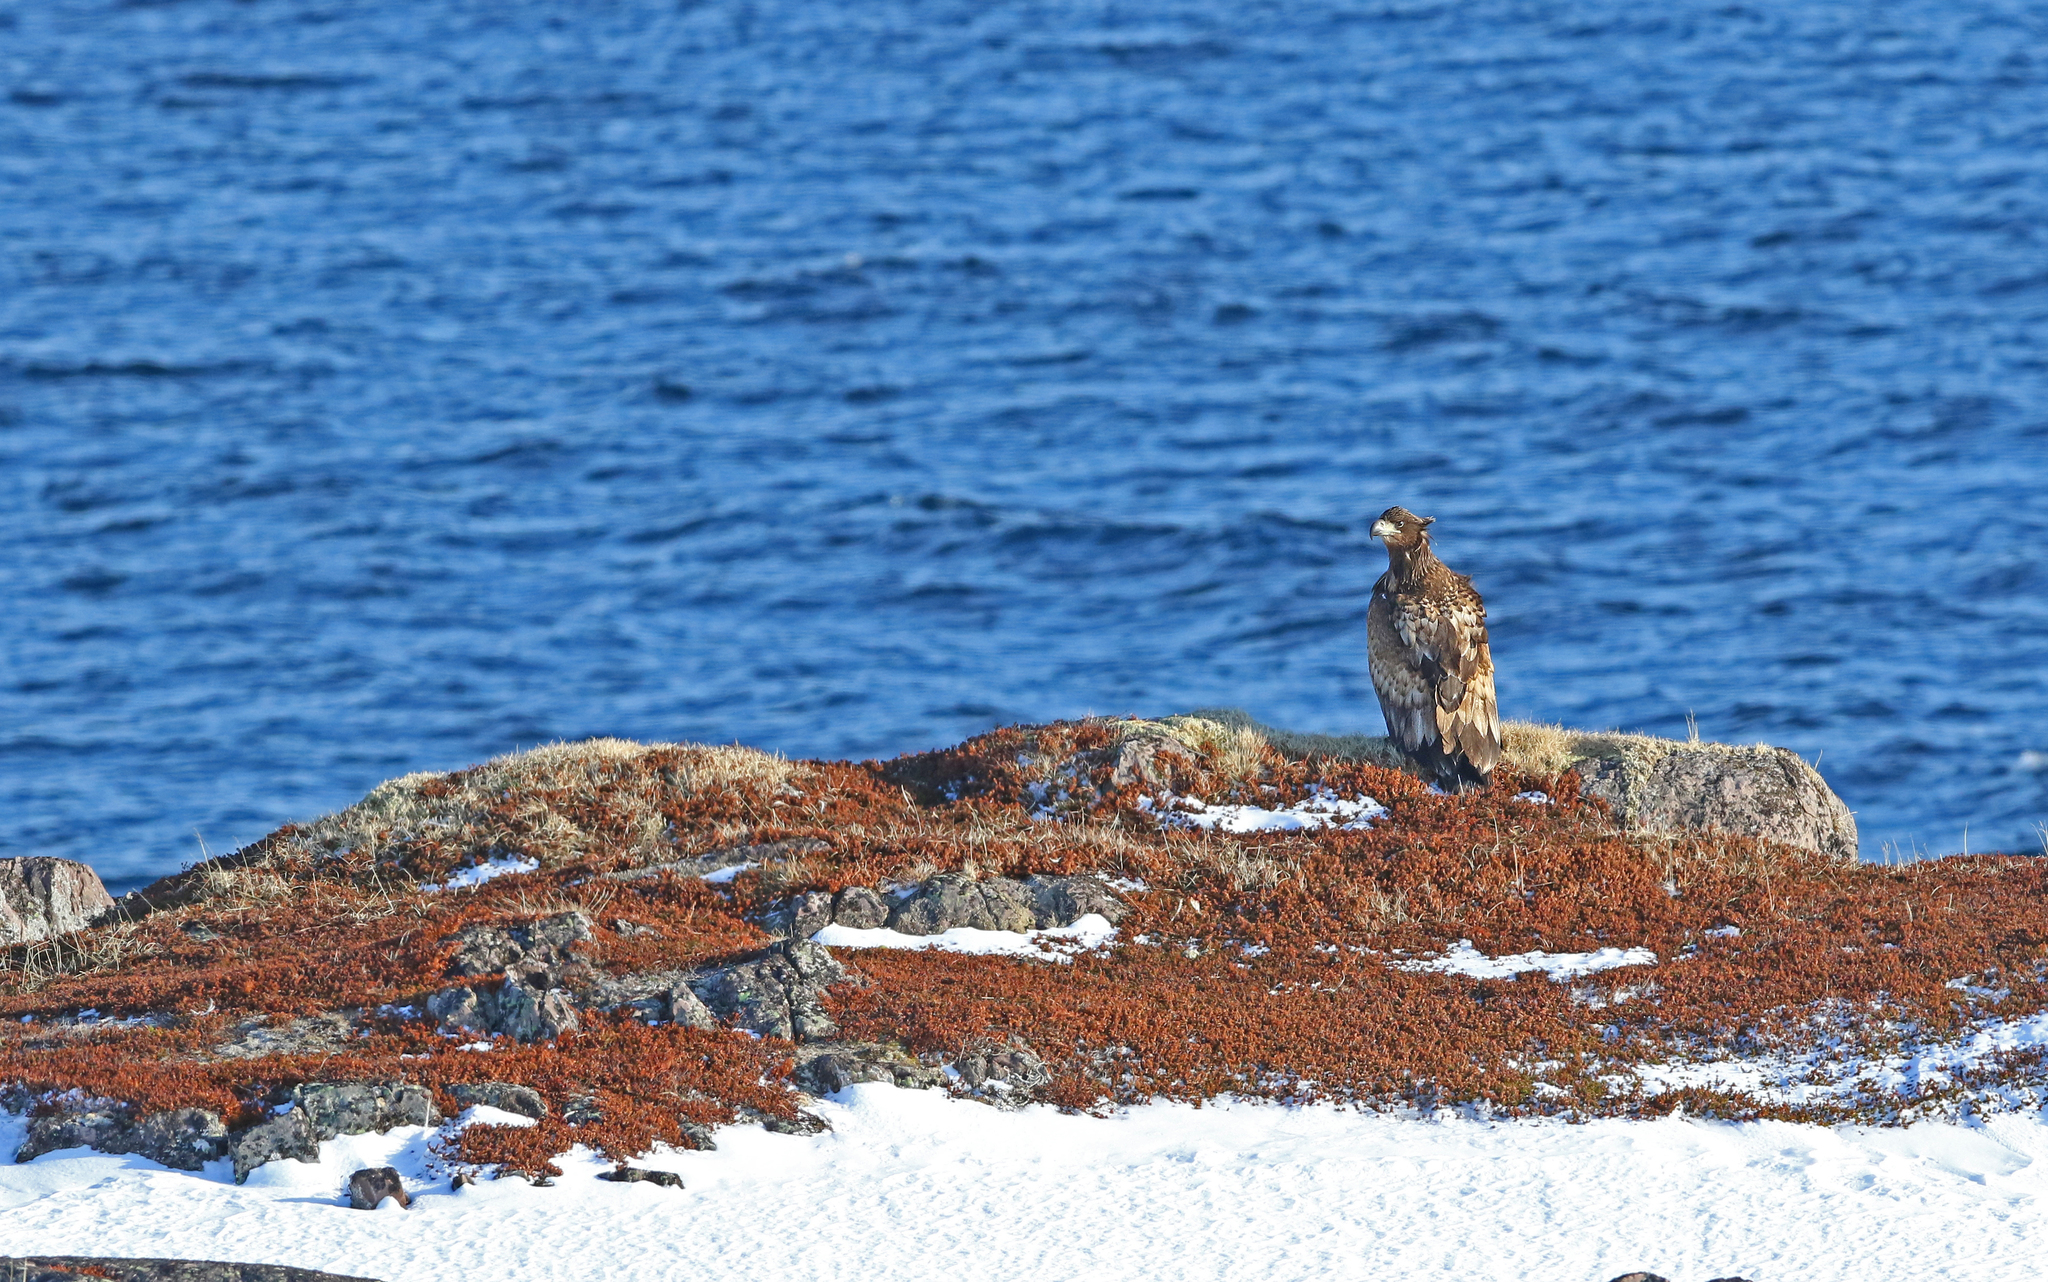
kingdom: Animalia
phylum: Chordata
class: Aves
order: Accipitriformes
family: Accipitridae
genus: Haliaeetus
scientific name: Haliaeetus albicilla
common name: White-tailed eagle
